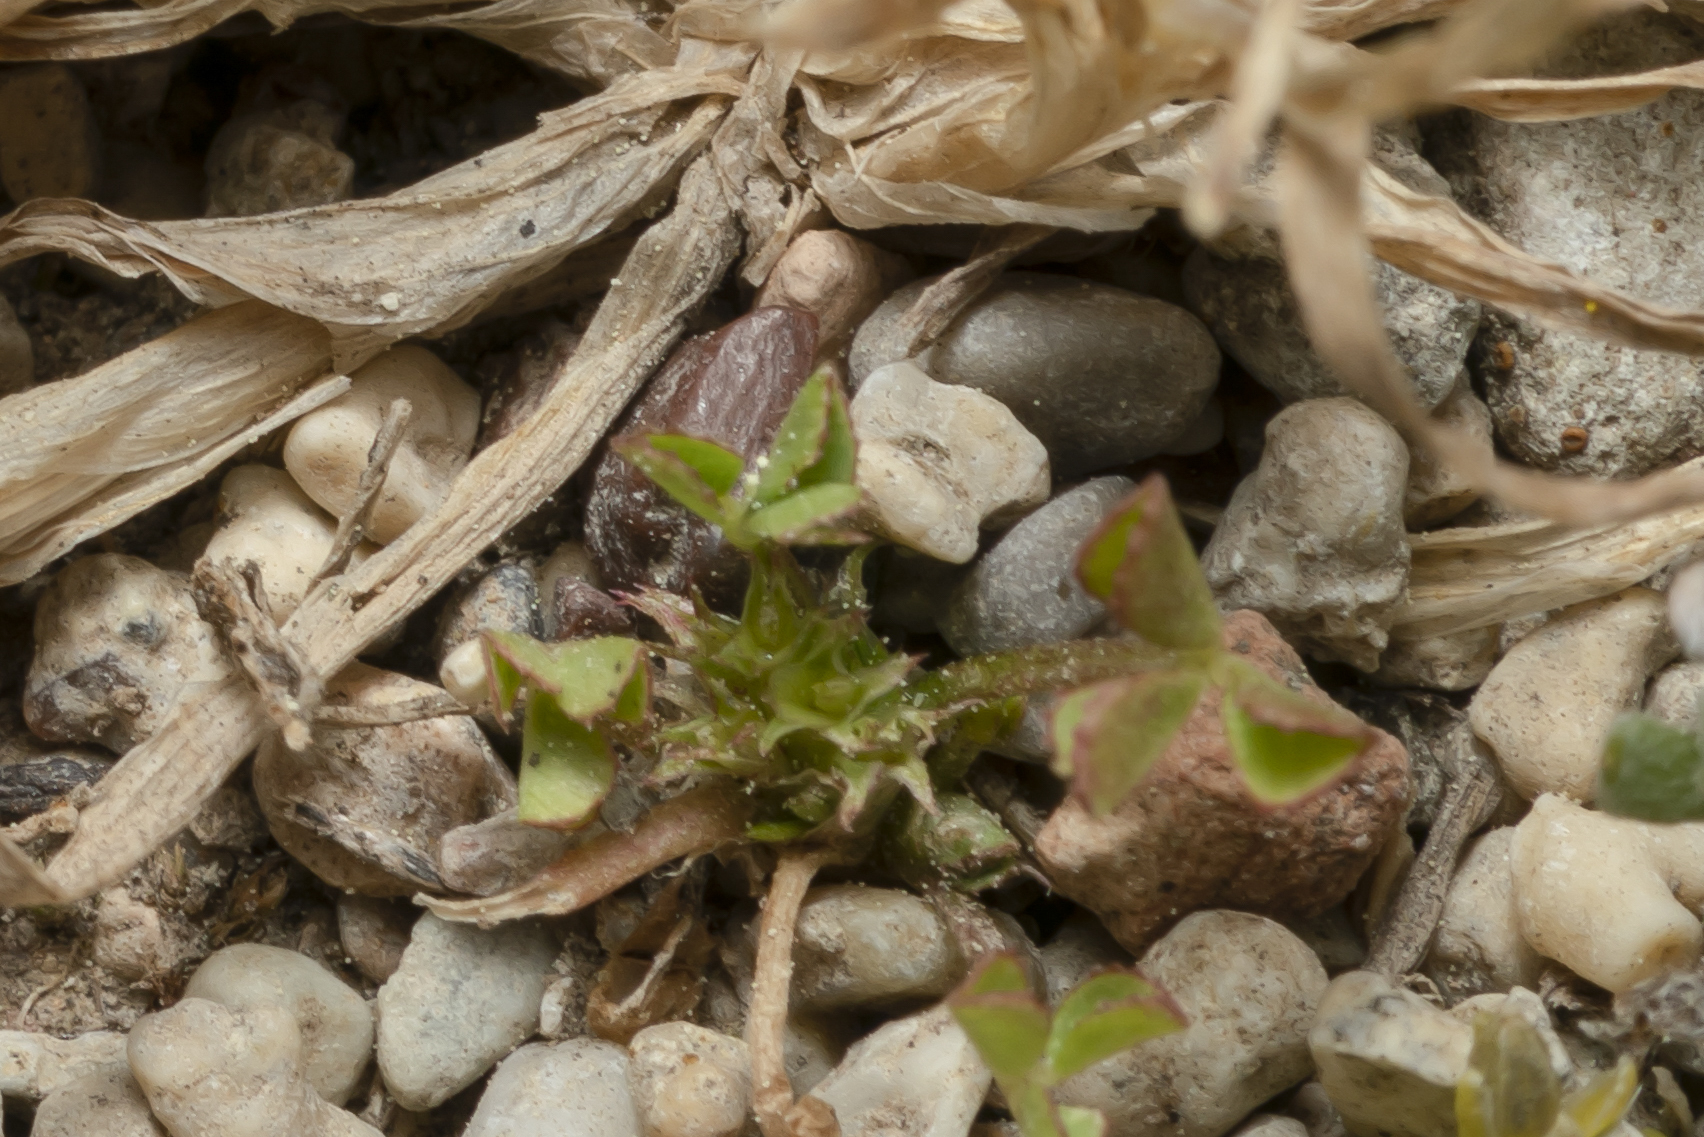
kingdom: Plantae
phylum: Tracheophyta
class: Magnoliopsida
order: Fabales
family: Fabaceae
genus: Trifolium
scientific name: Trifolium suffocatum
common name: Suffocated clover
